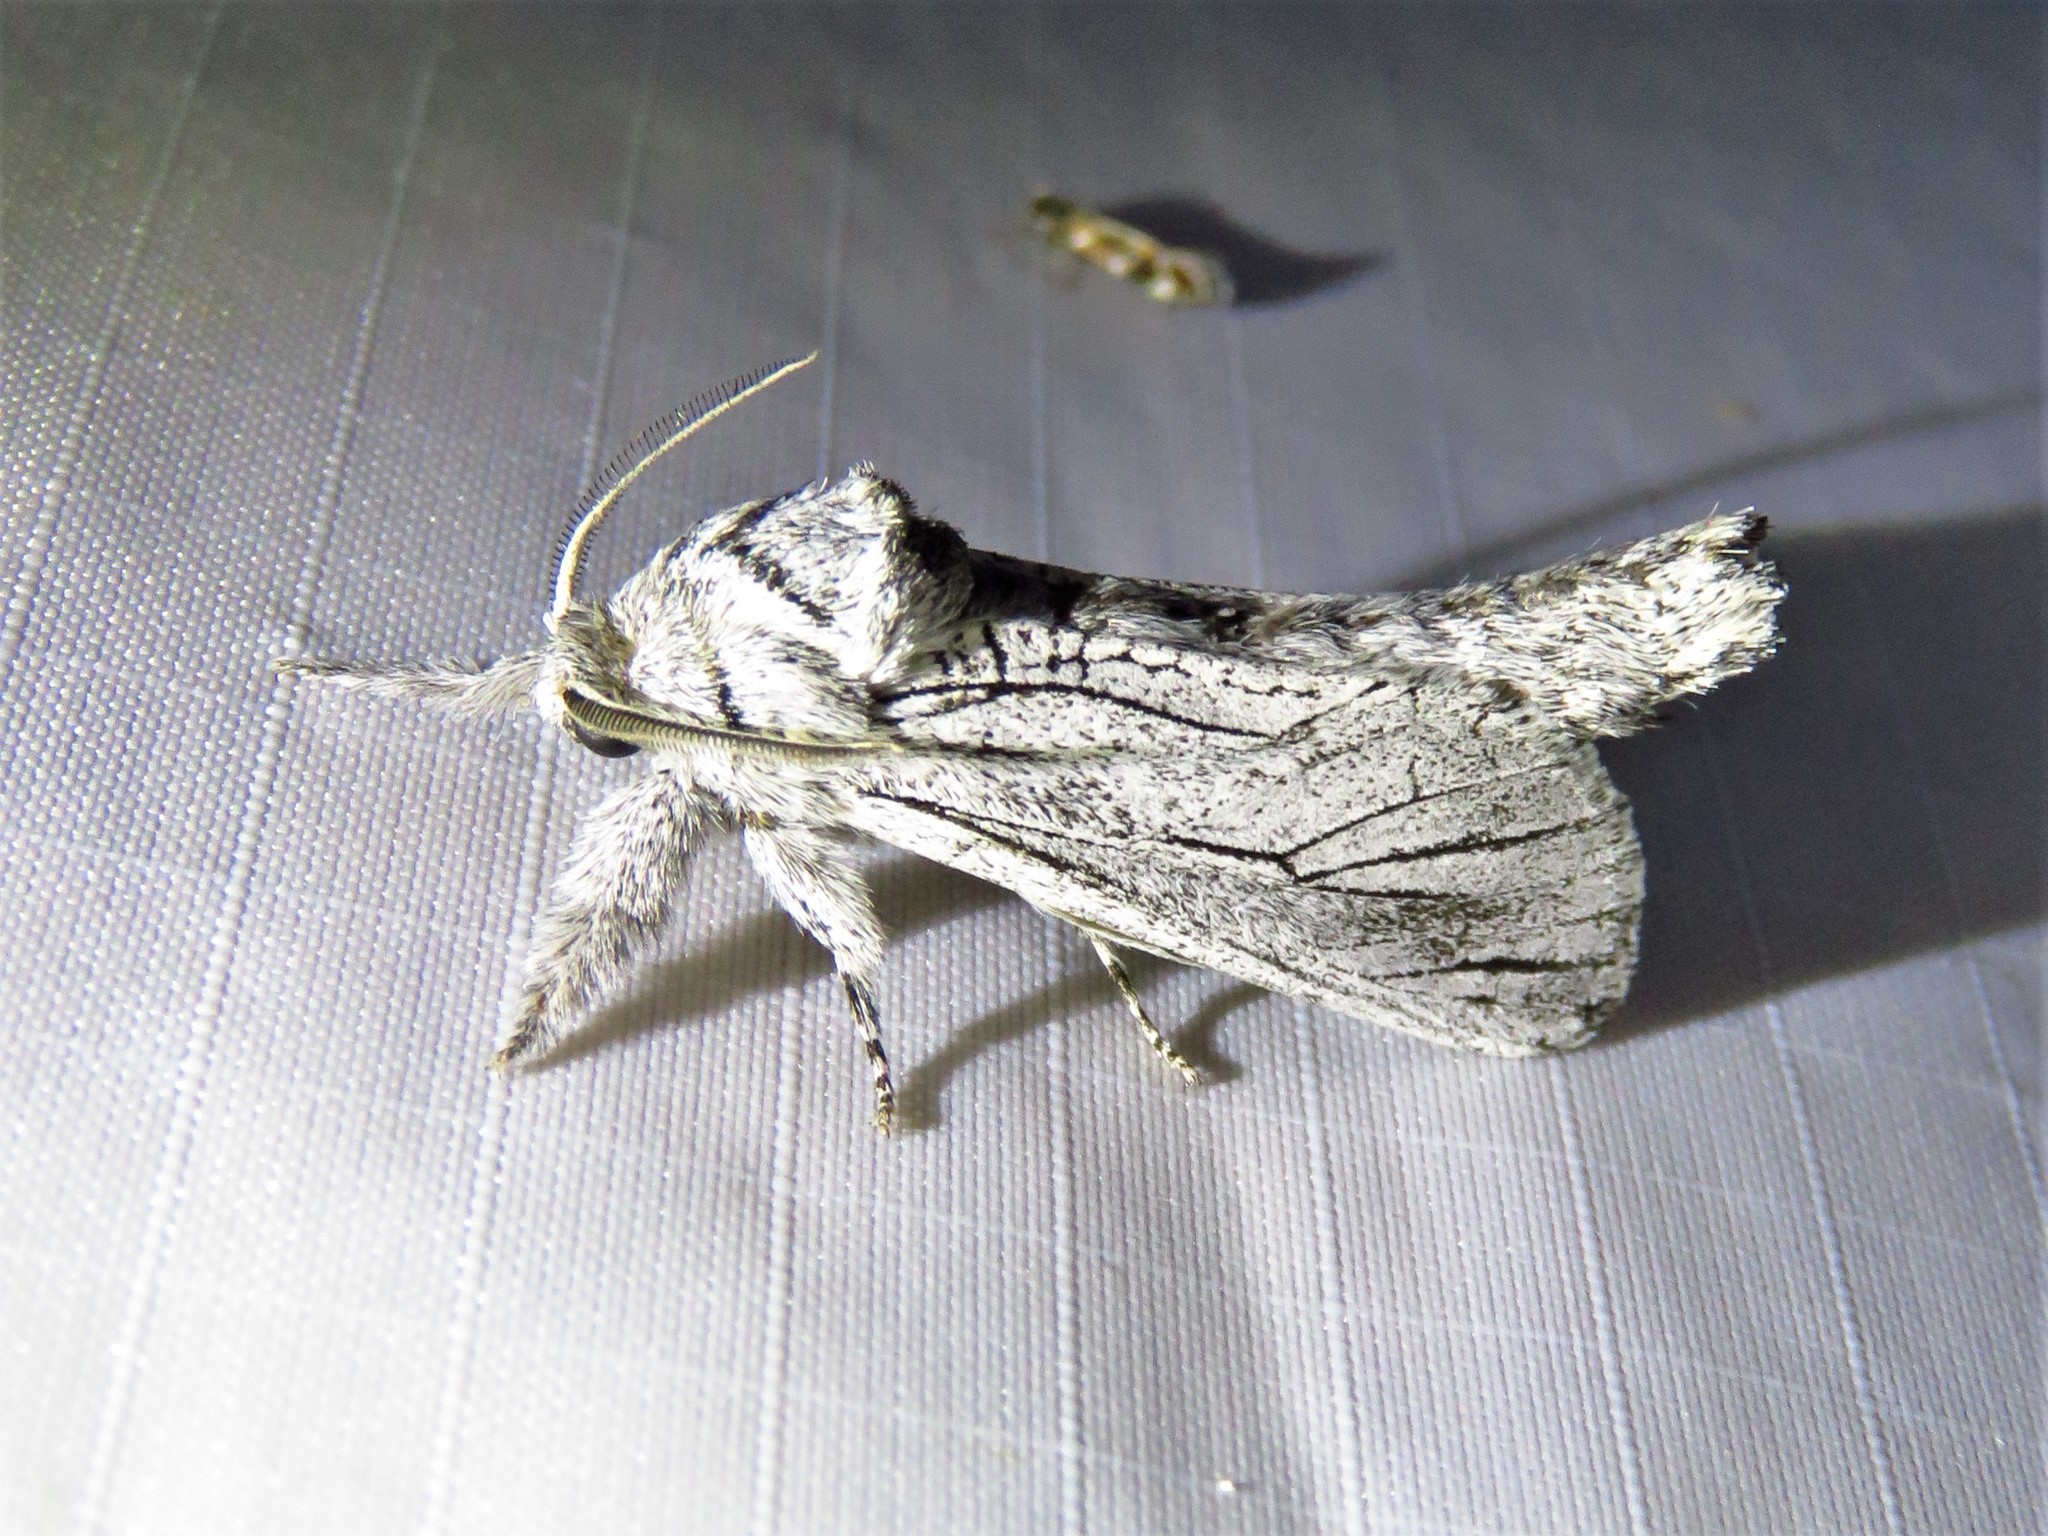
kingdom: Animalia
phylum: Arthropoda
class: Insecta
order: Lepidoptera
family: Cossidae
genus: Inguromorpha
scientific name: Inguromorpha
